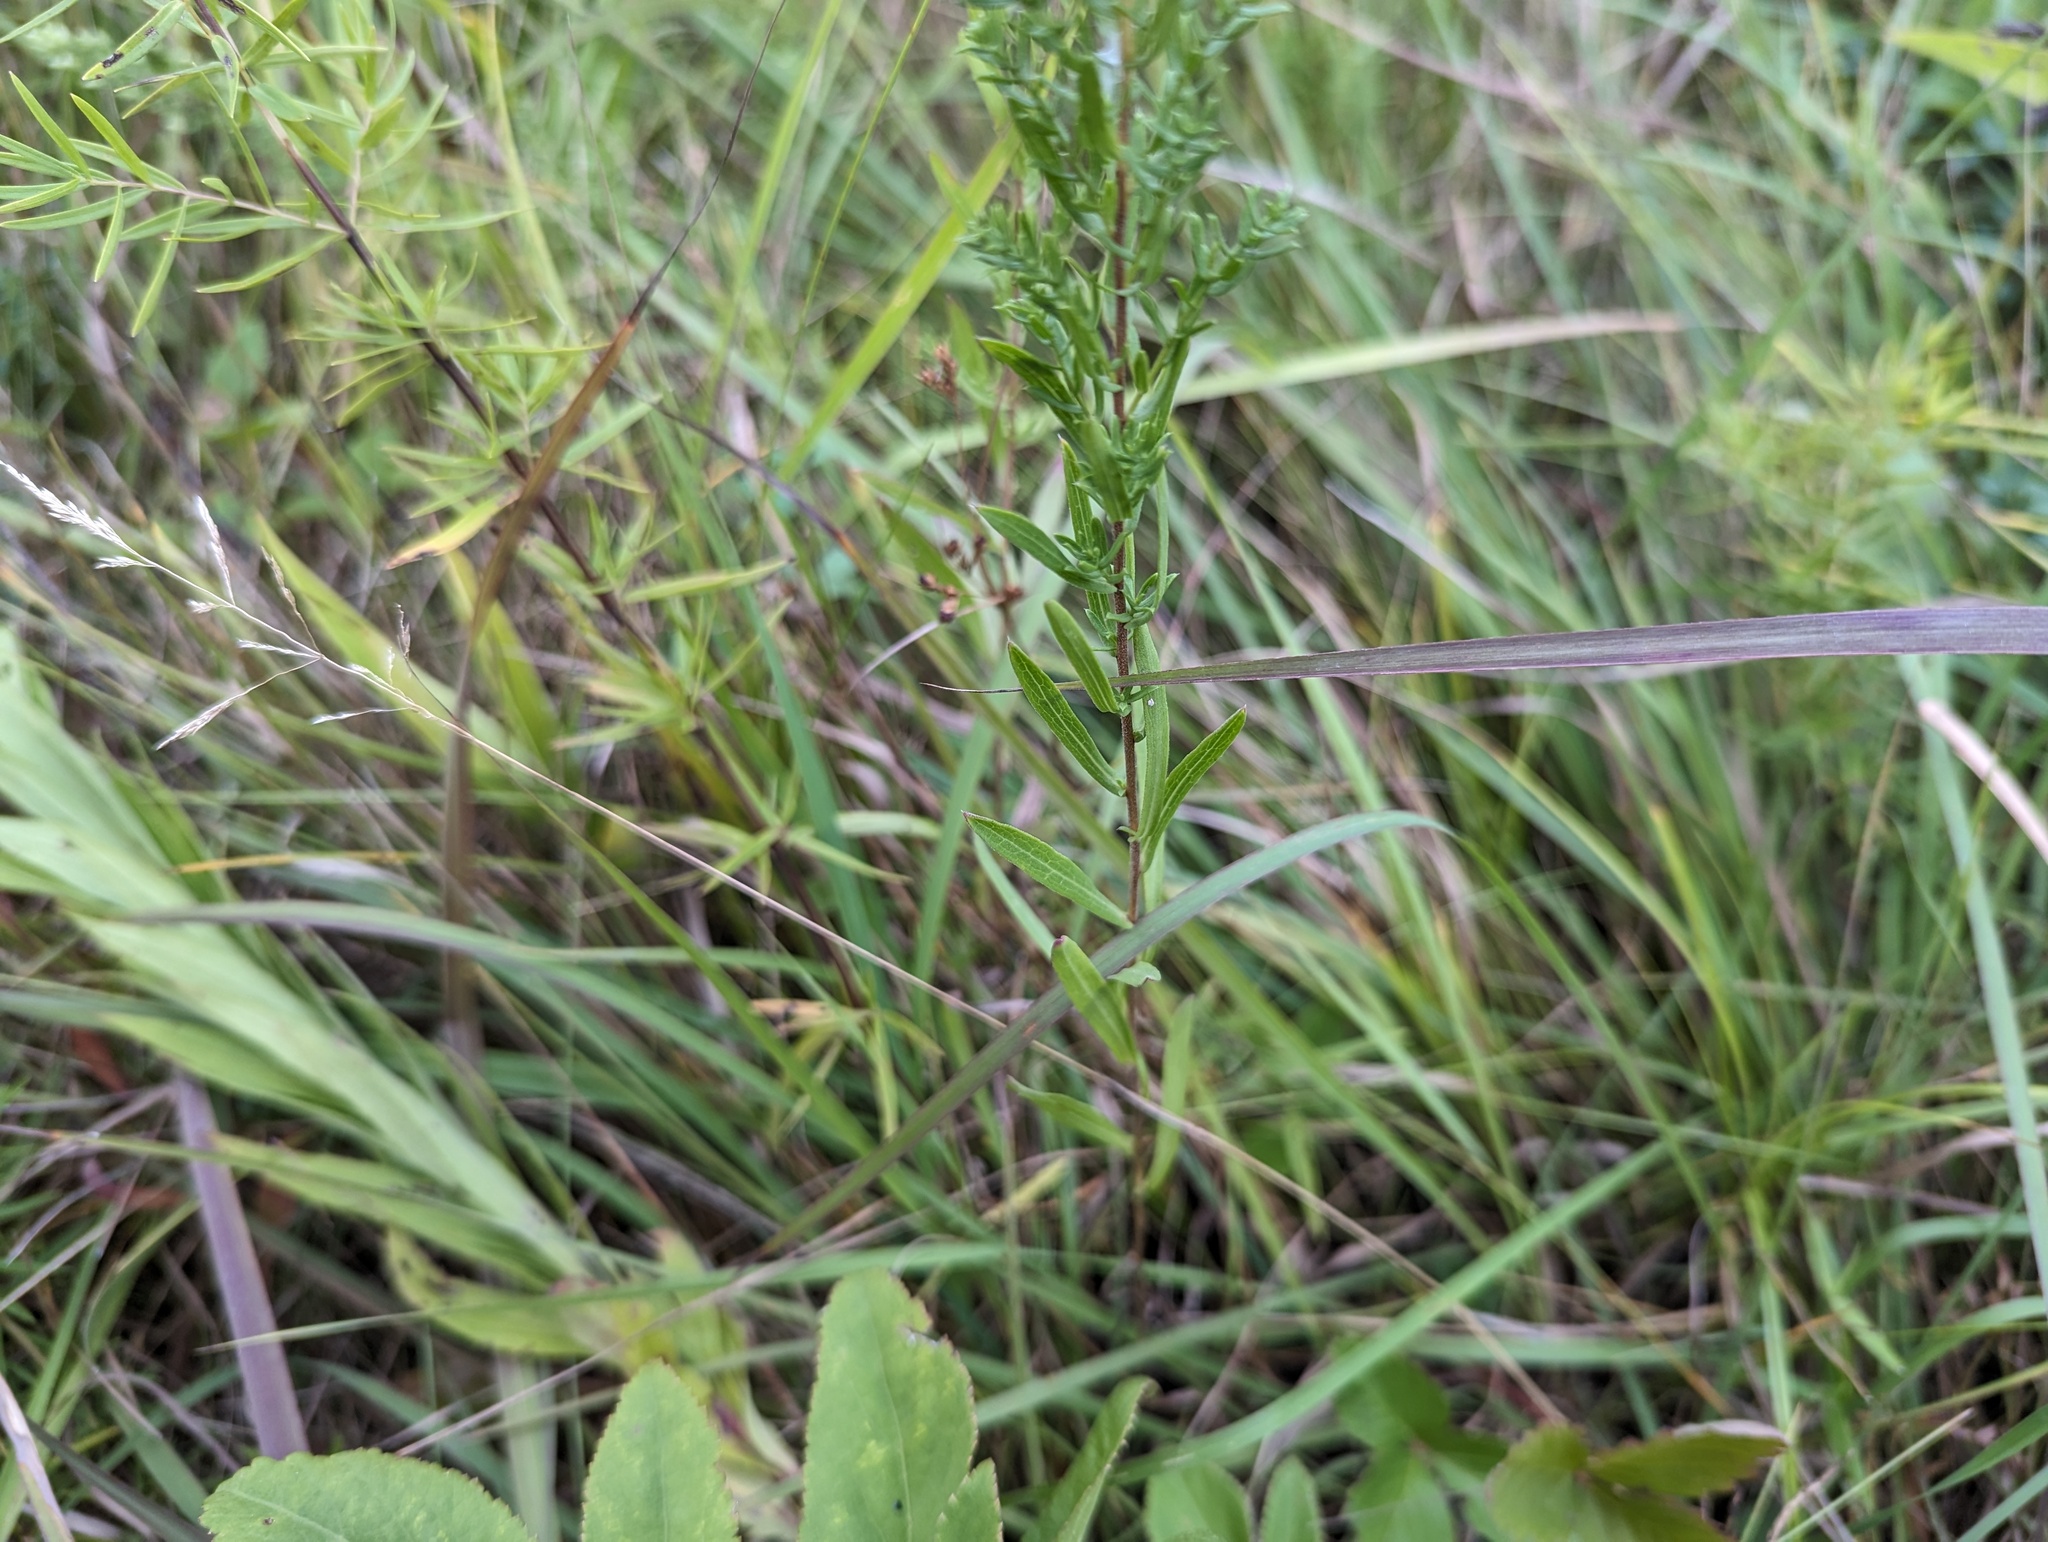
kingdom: Plantae
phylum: Tracheophyta
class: Magnoliopsida
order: Asterales
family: Asteraceae
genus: Symphyotrichum
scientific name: Symphyotrichum ericoides
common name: Heath aster
